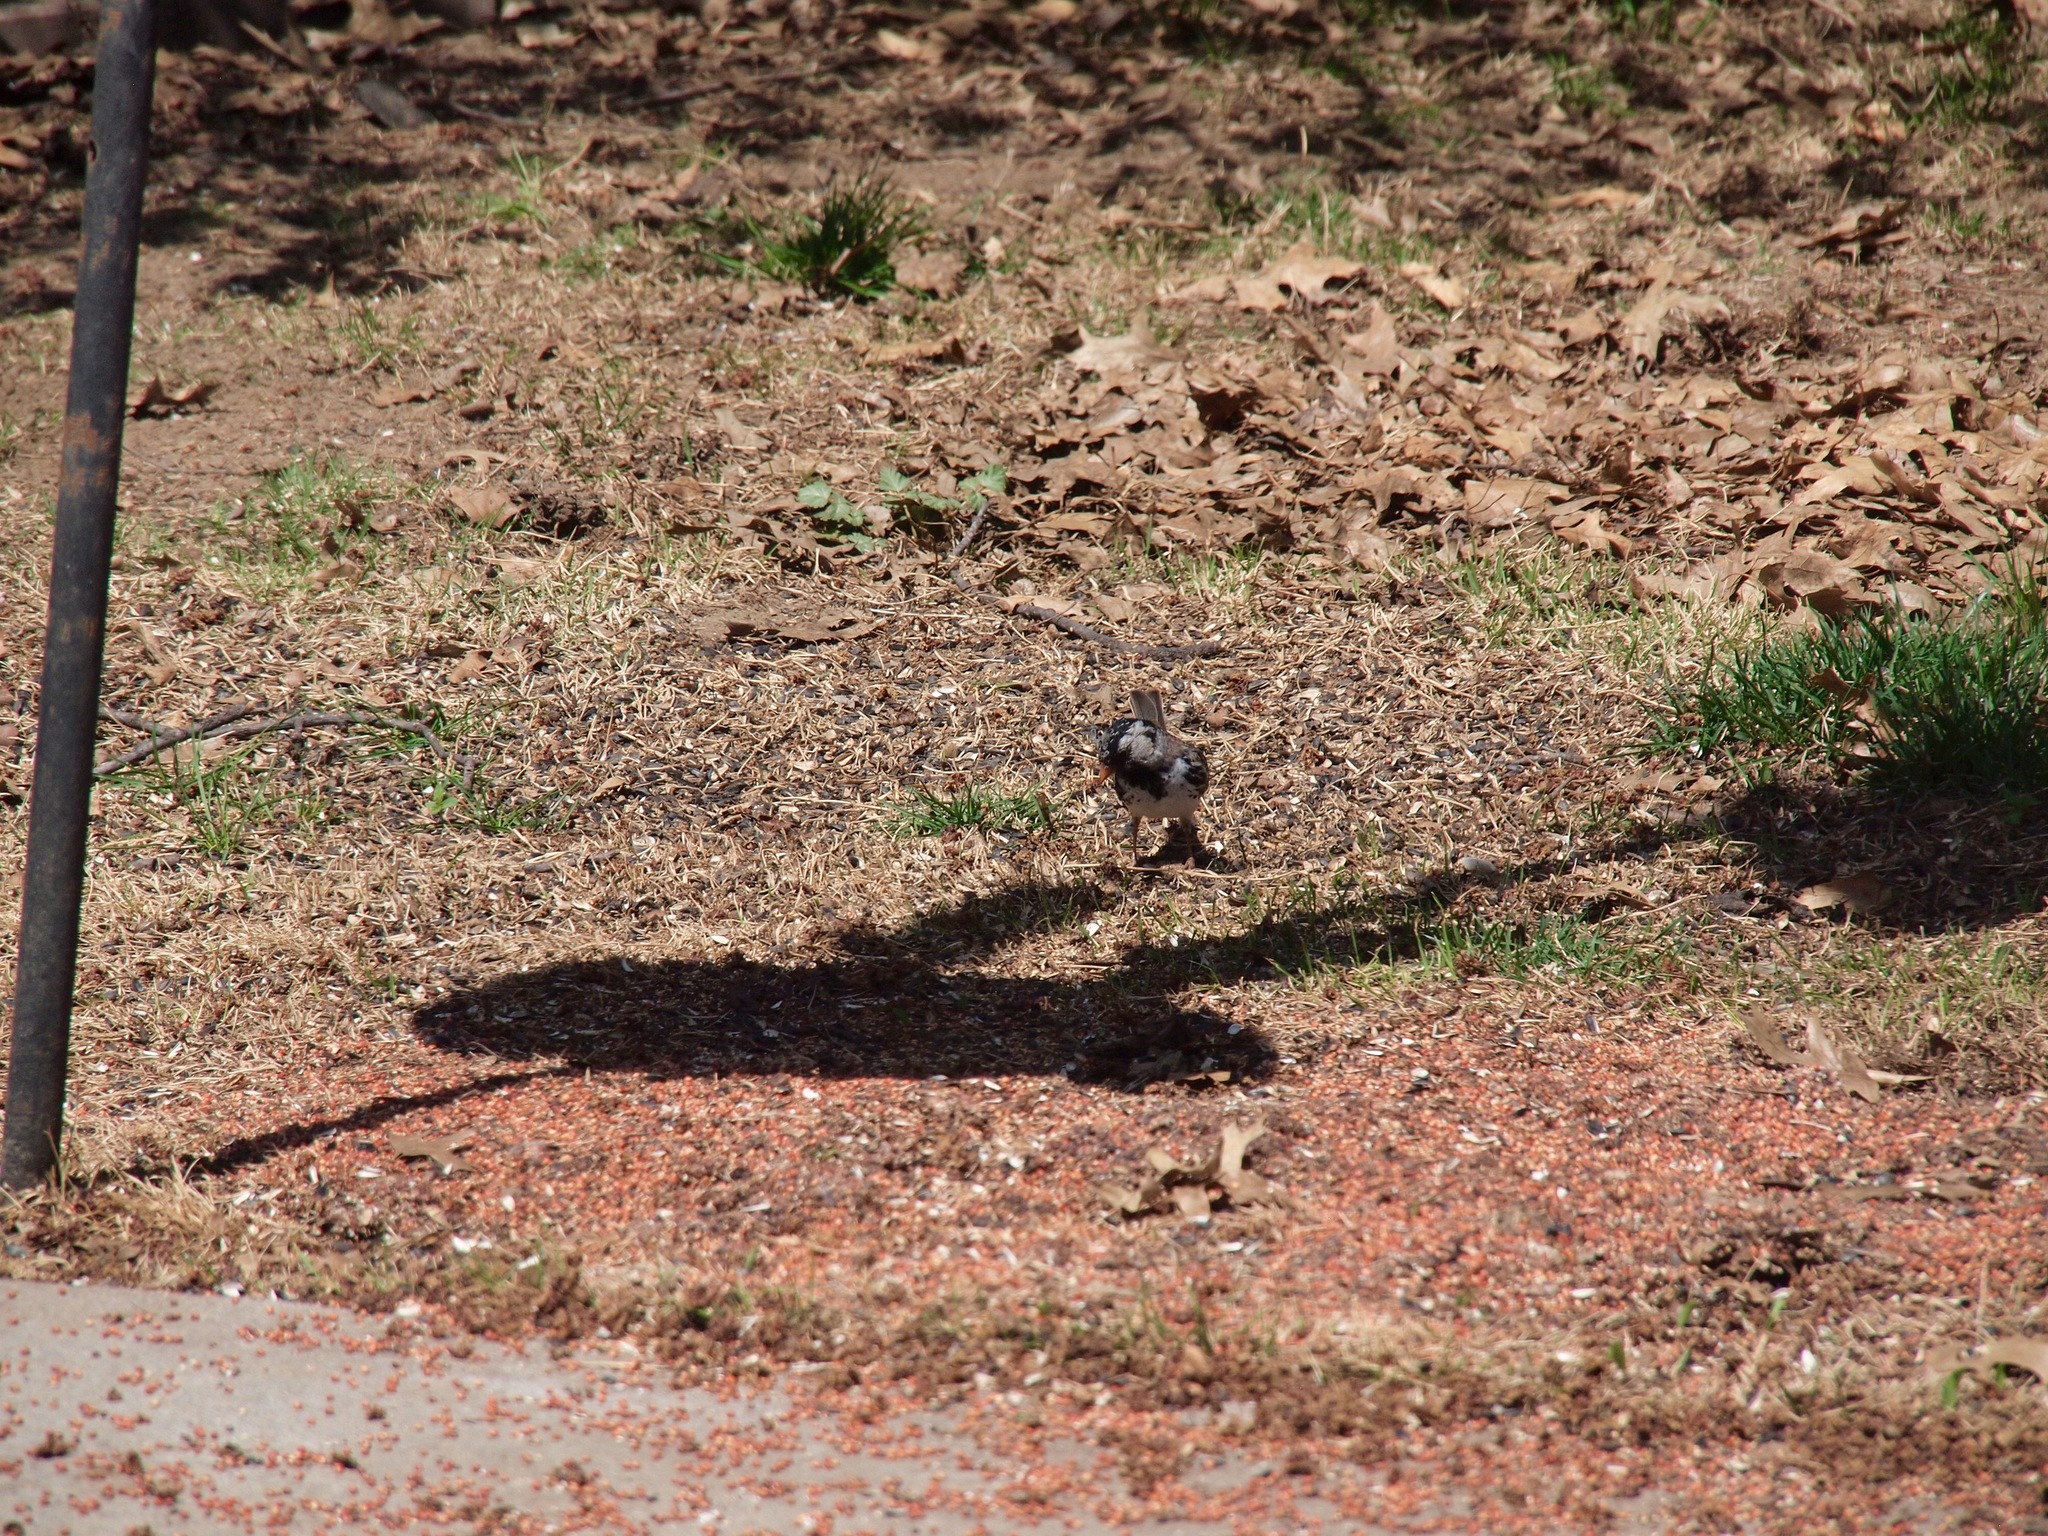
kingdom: Animalia
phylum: Chordata
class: Aves
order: Passeriformes
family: Passerellidae
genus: Zonotrichia
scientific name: Zonotrichia querula
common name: Harris's sparrow
